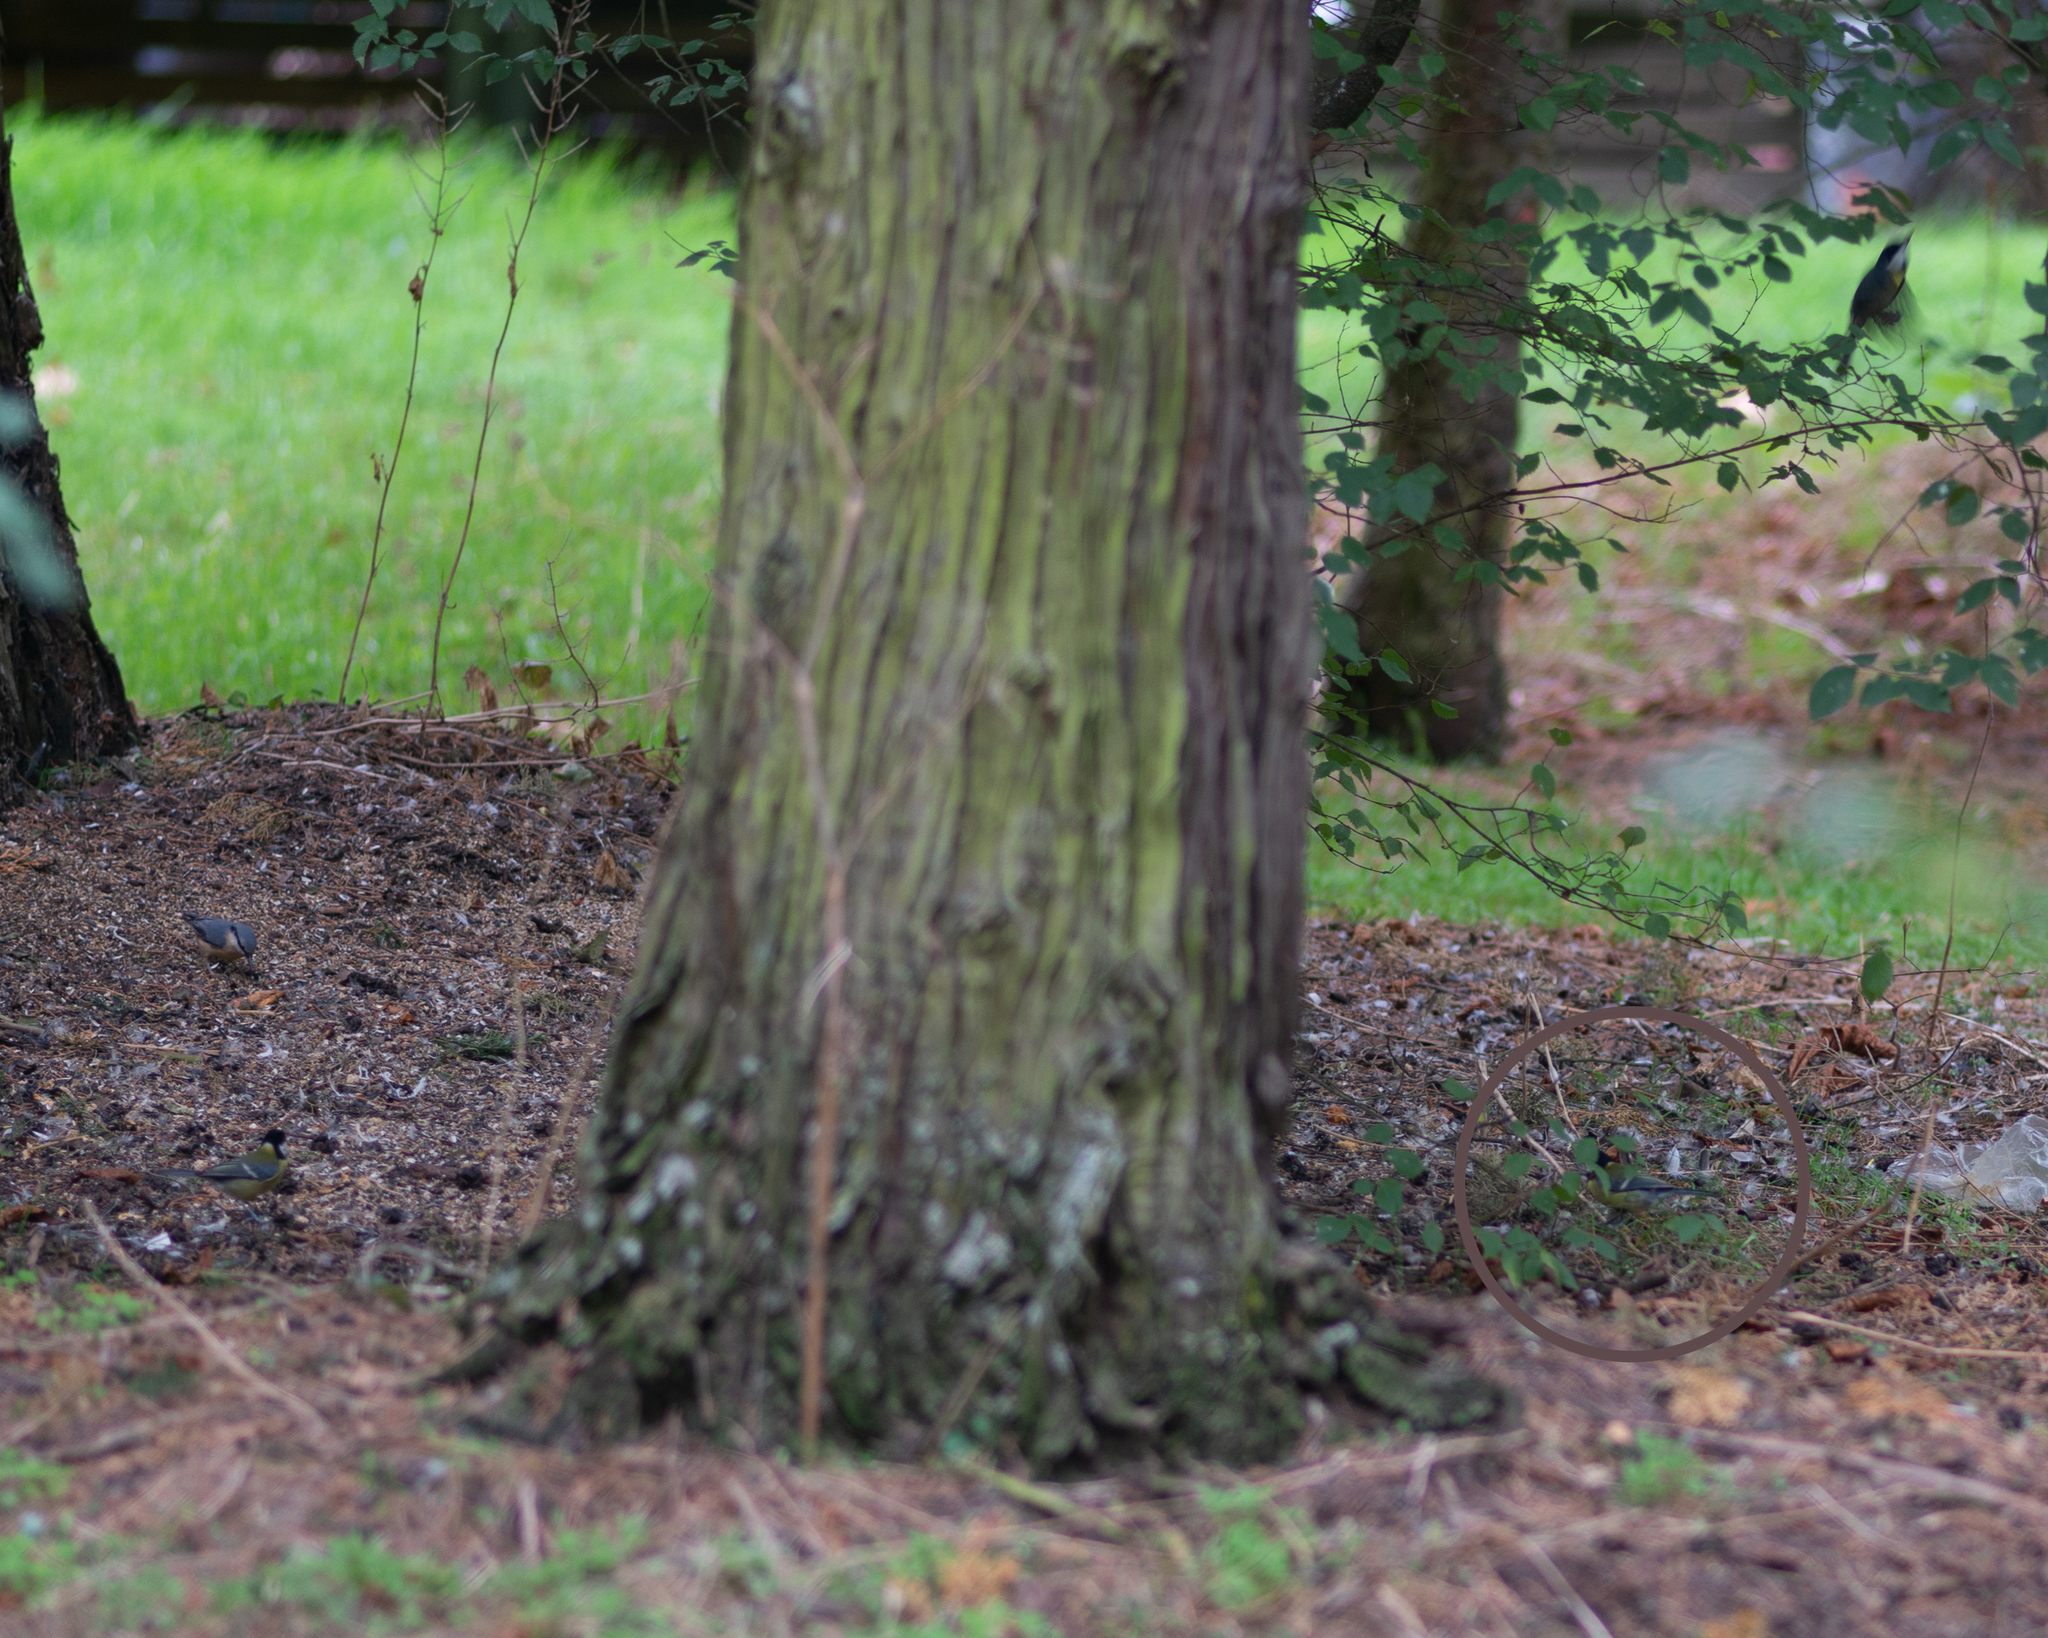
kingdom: Animalia
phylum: Chordata
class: Aves
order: Passeriformes
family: Paridae
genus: Parus
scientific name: Parus major
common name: Great tit
